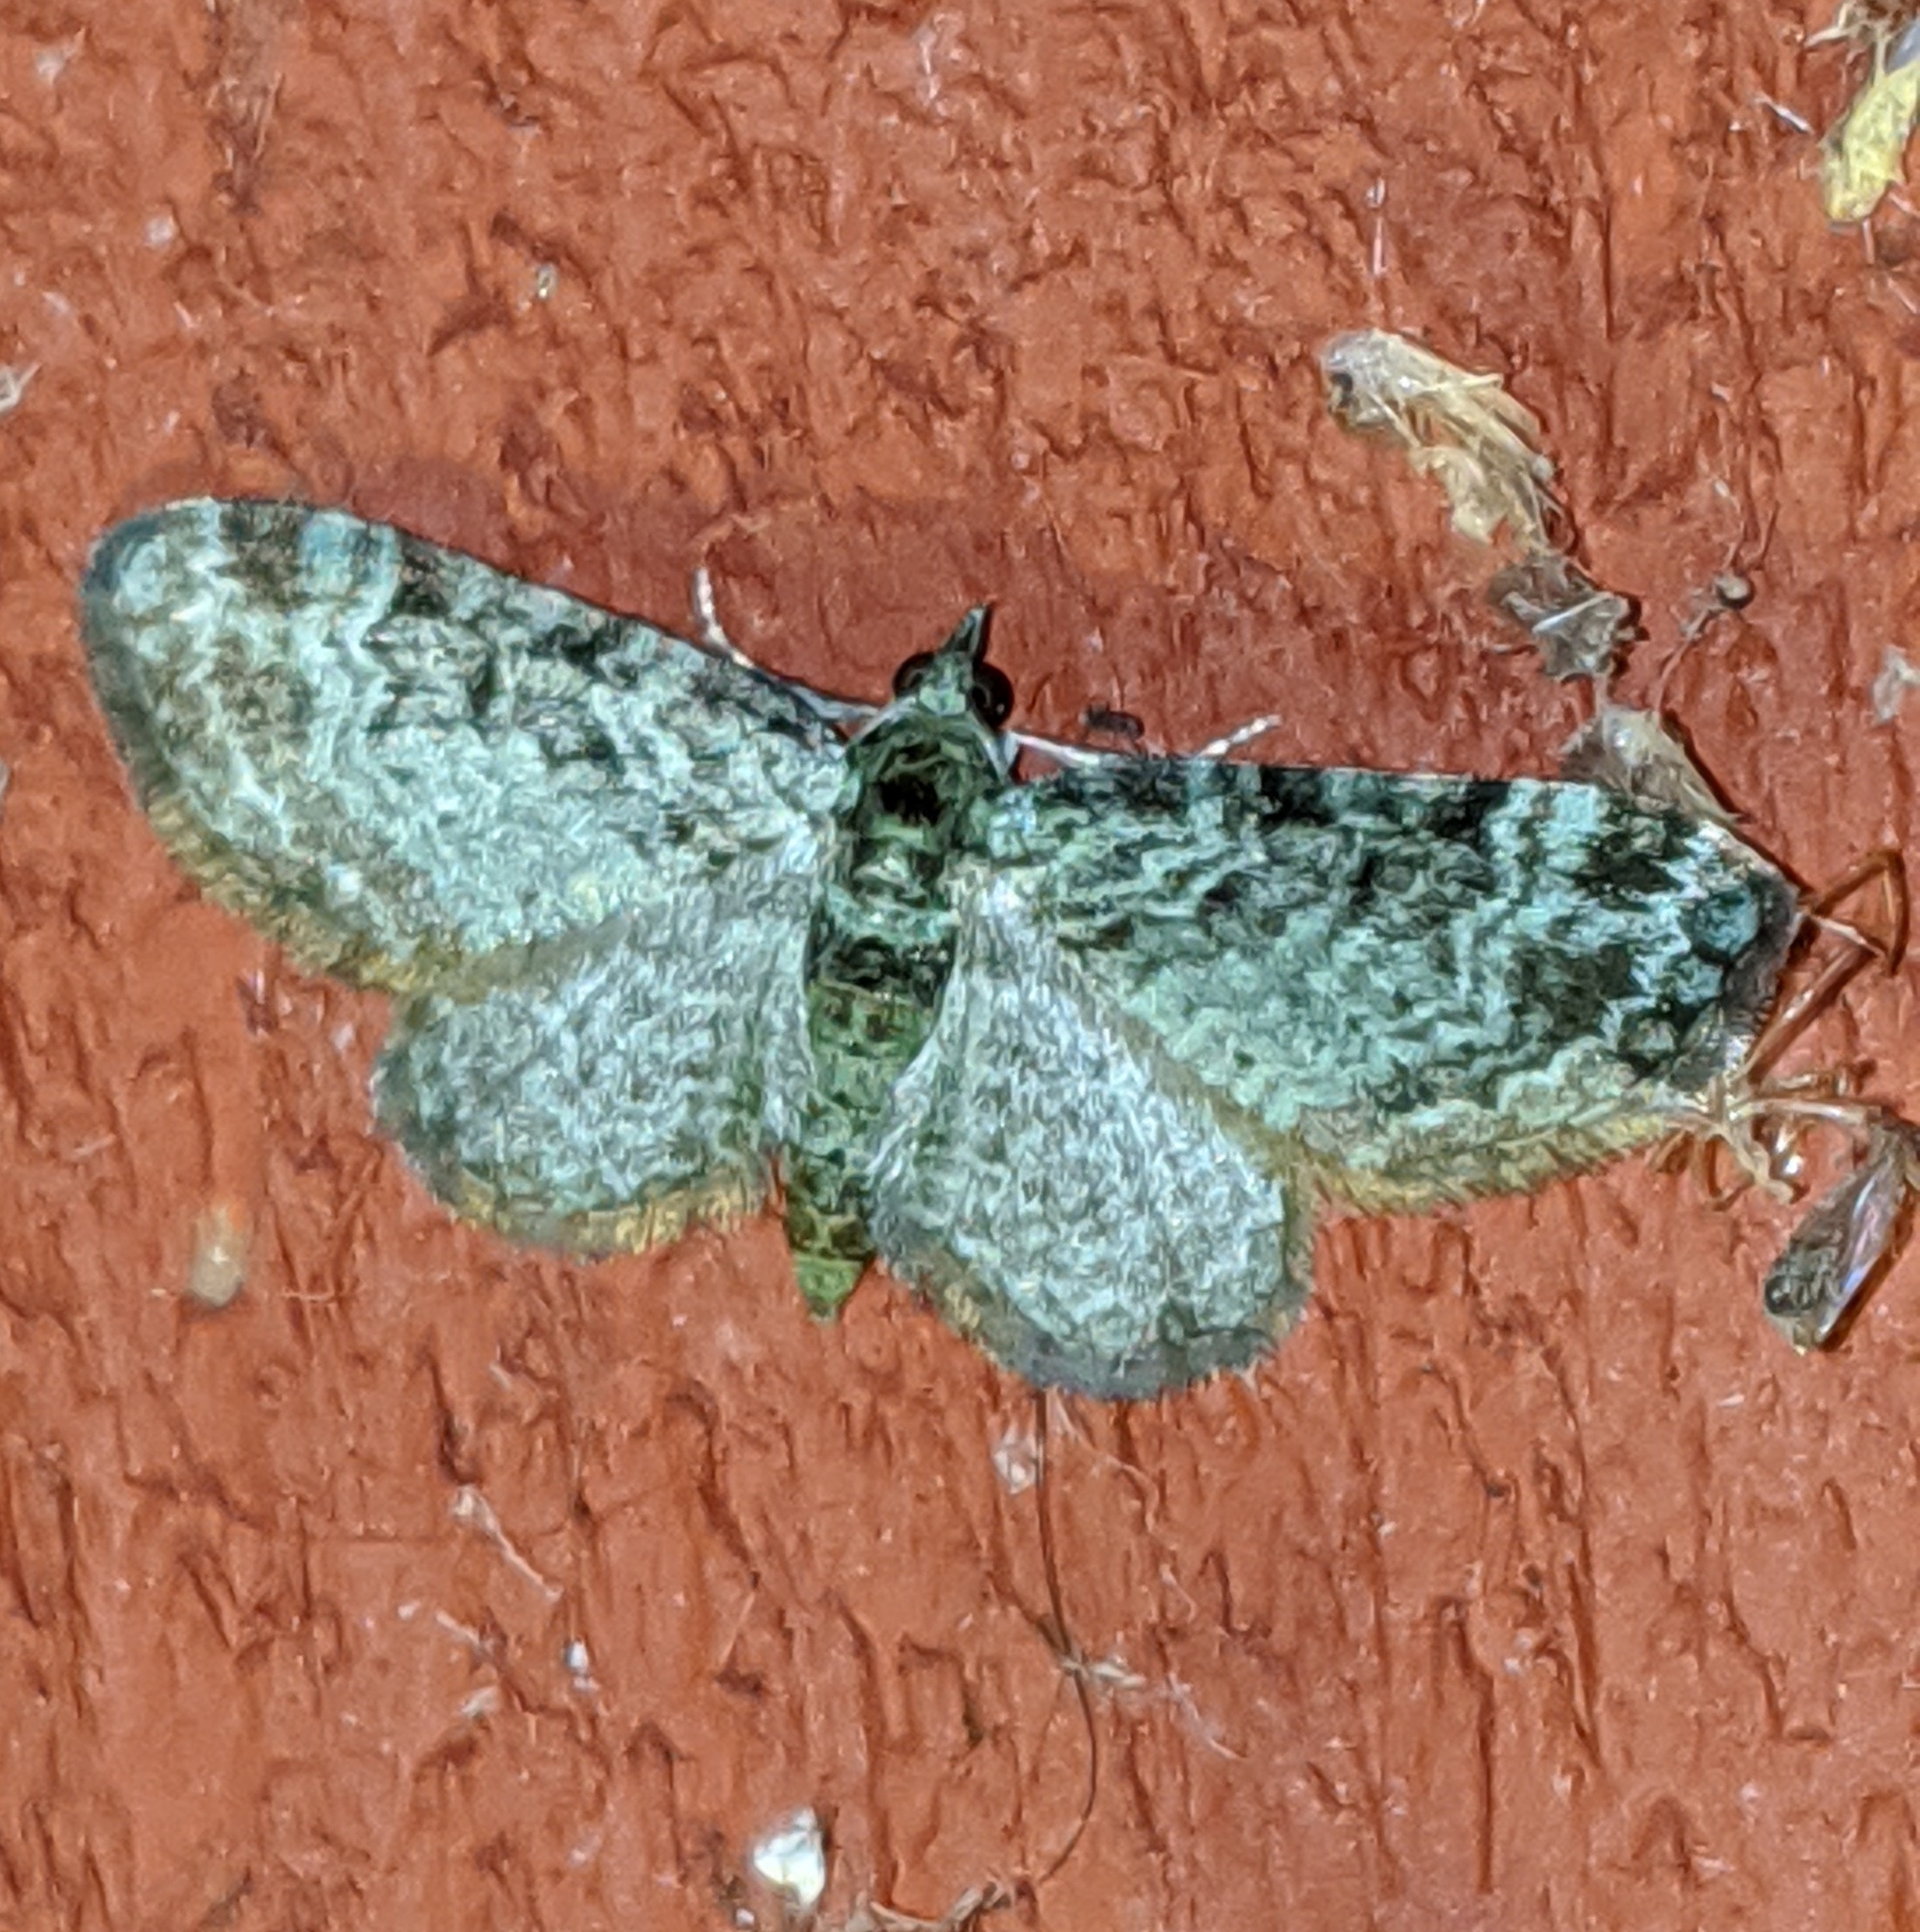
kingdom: Animalia
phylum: Arthropoda
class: Insecta
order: Lepidoptera
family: Geometridae
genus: Pasiphila
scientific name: Pasiphila rectangulata
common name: Green pug
